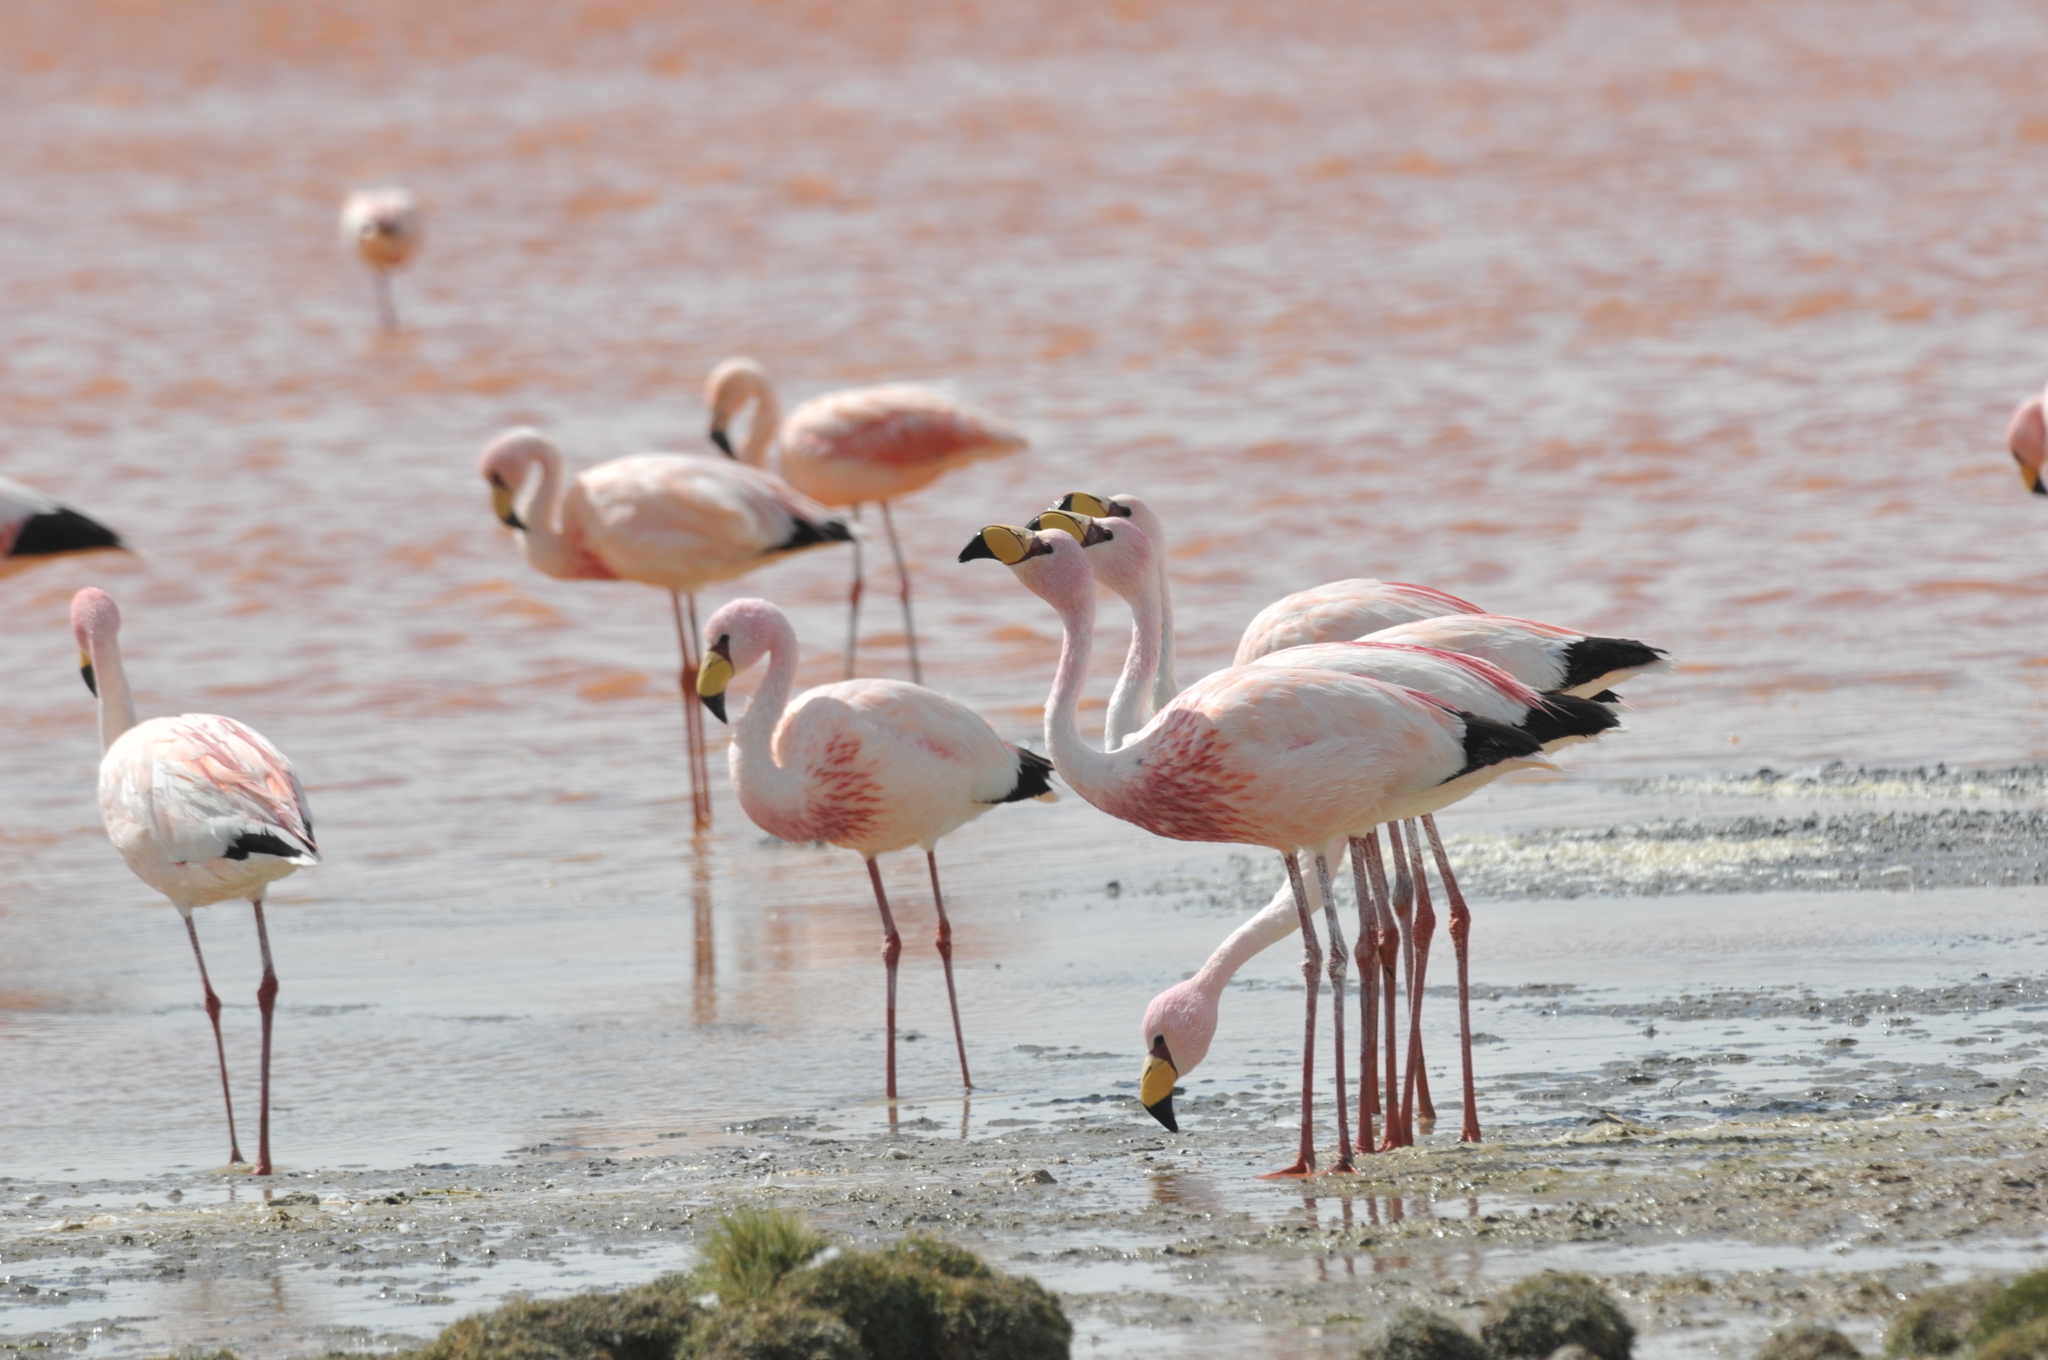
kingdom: Animalia
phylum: Chordata
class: Aves
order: Phoenicopteriformes
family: Phoenicopteridae
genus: Phoenicoparrus
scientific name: Phoenicoparrus jamesi
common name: James's flamingo
